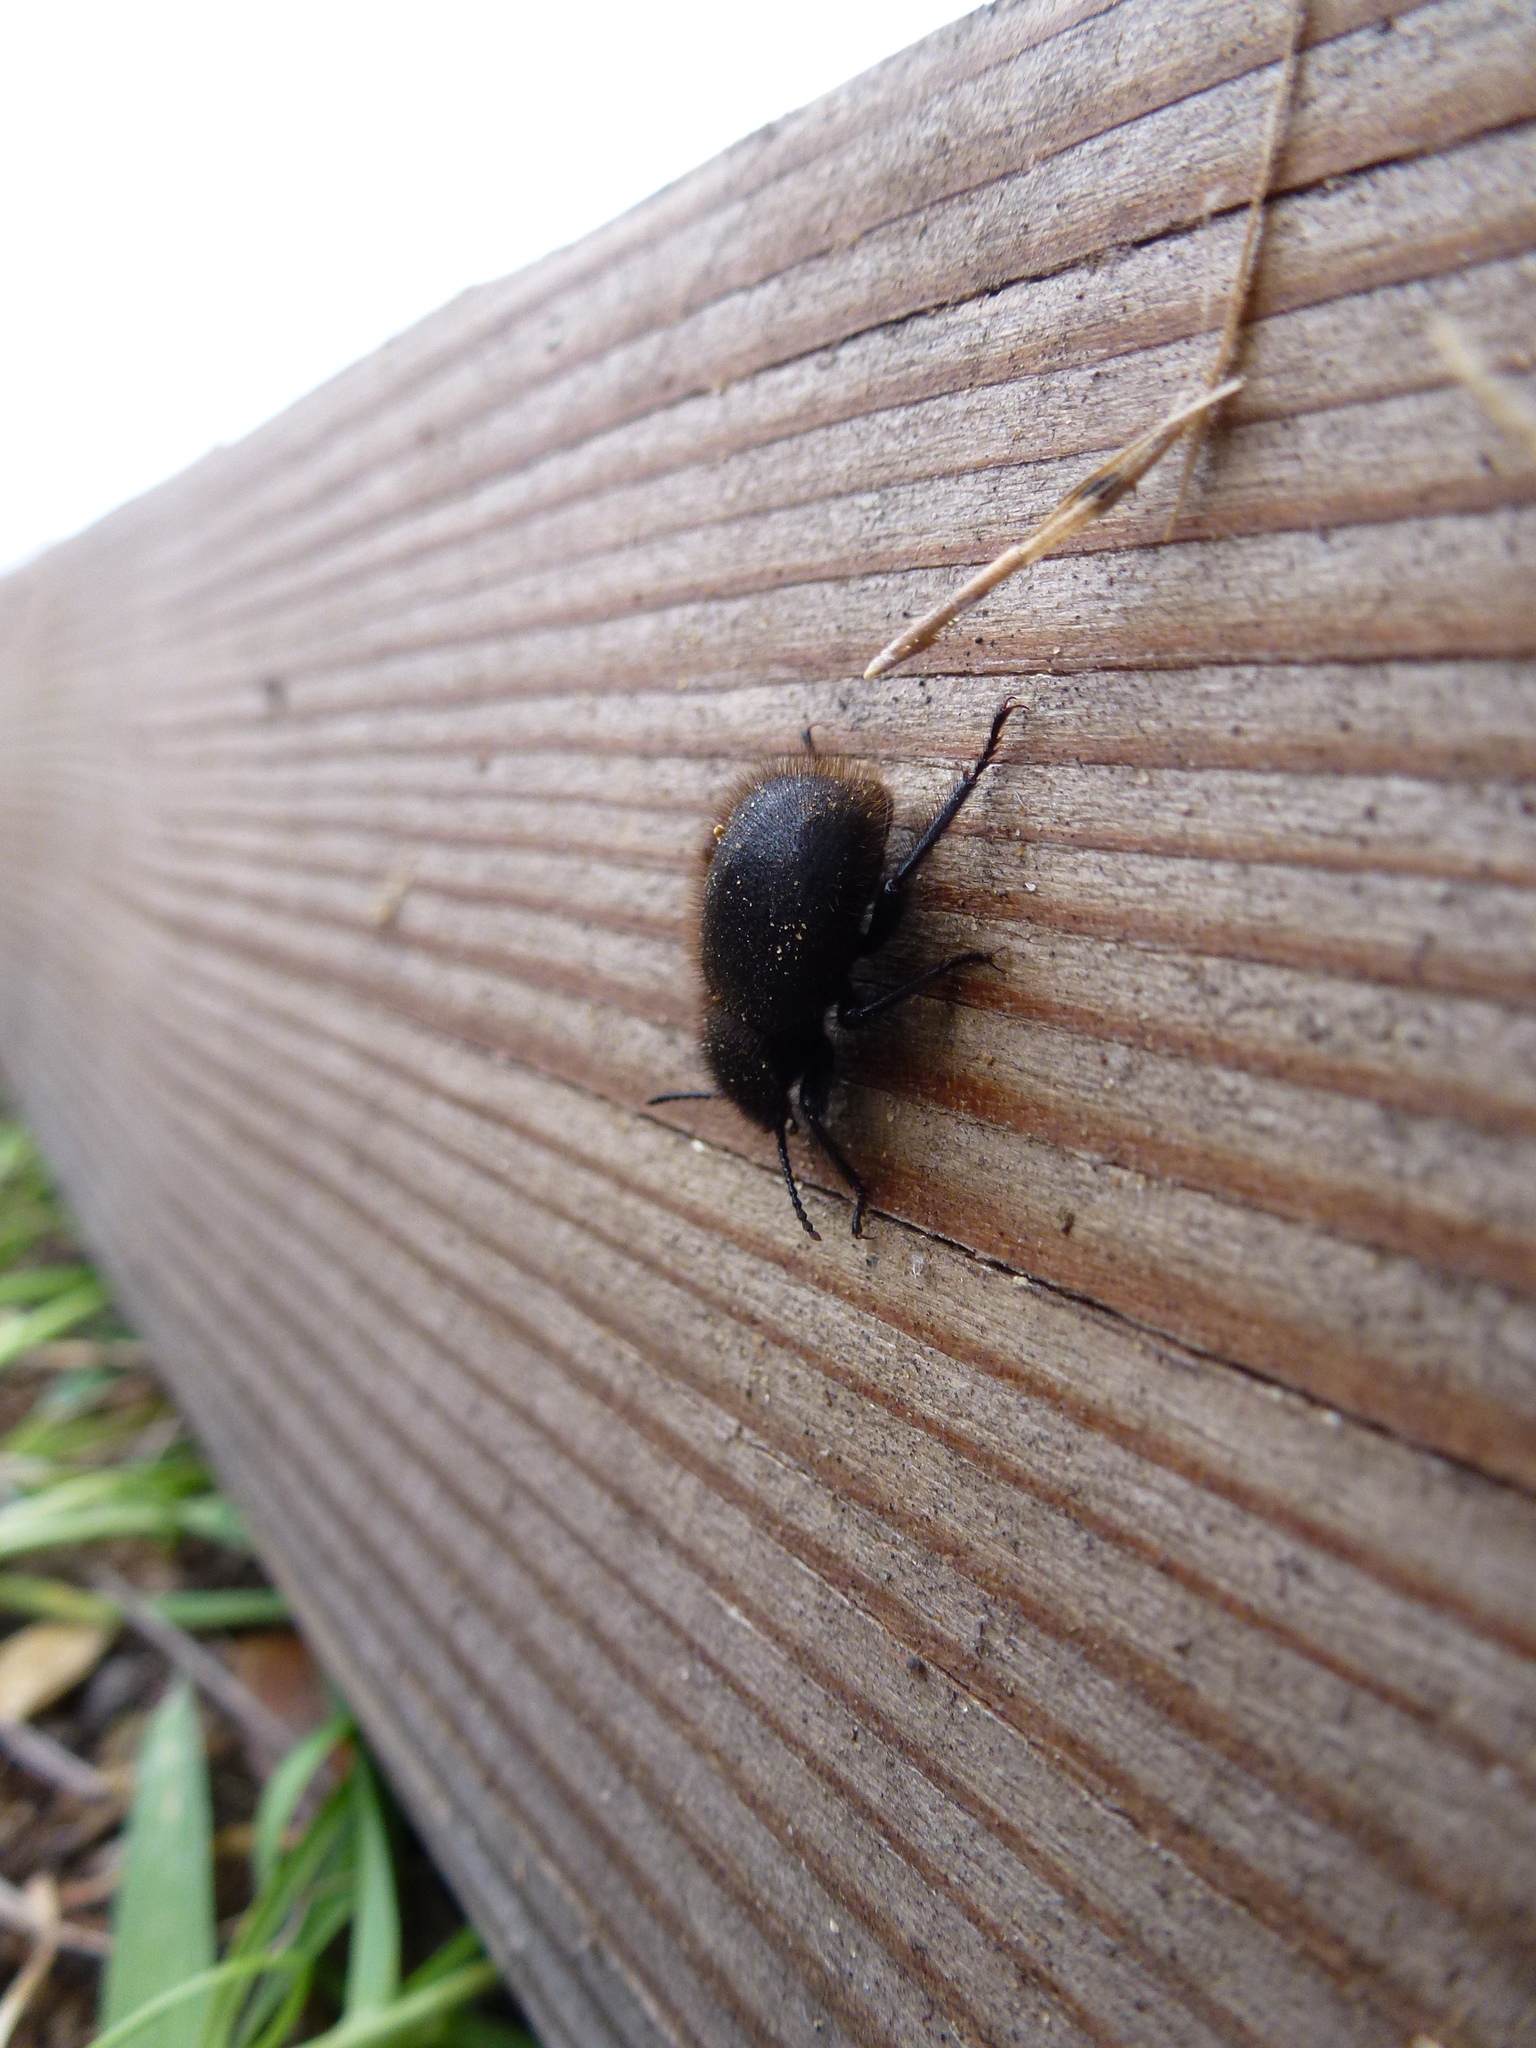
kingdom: Animalia
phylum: Arthropoda
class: Insecta
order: Coleoptera
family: Tenebrionidae
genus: Eleodes
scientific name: Eleodes osculans
